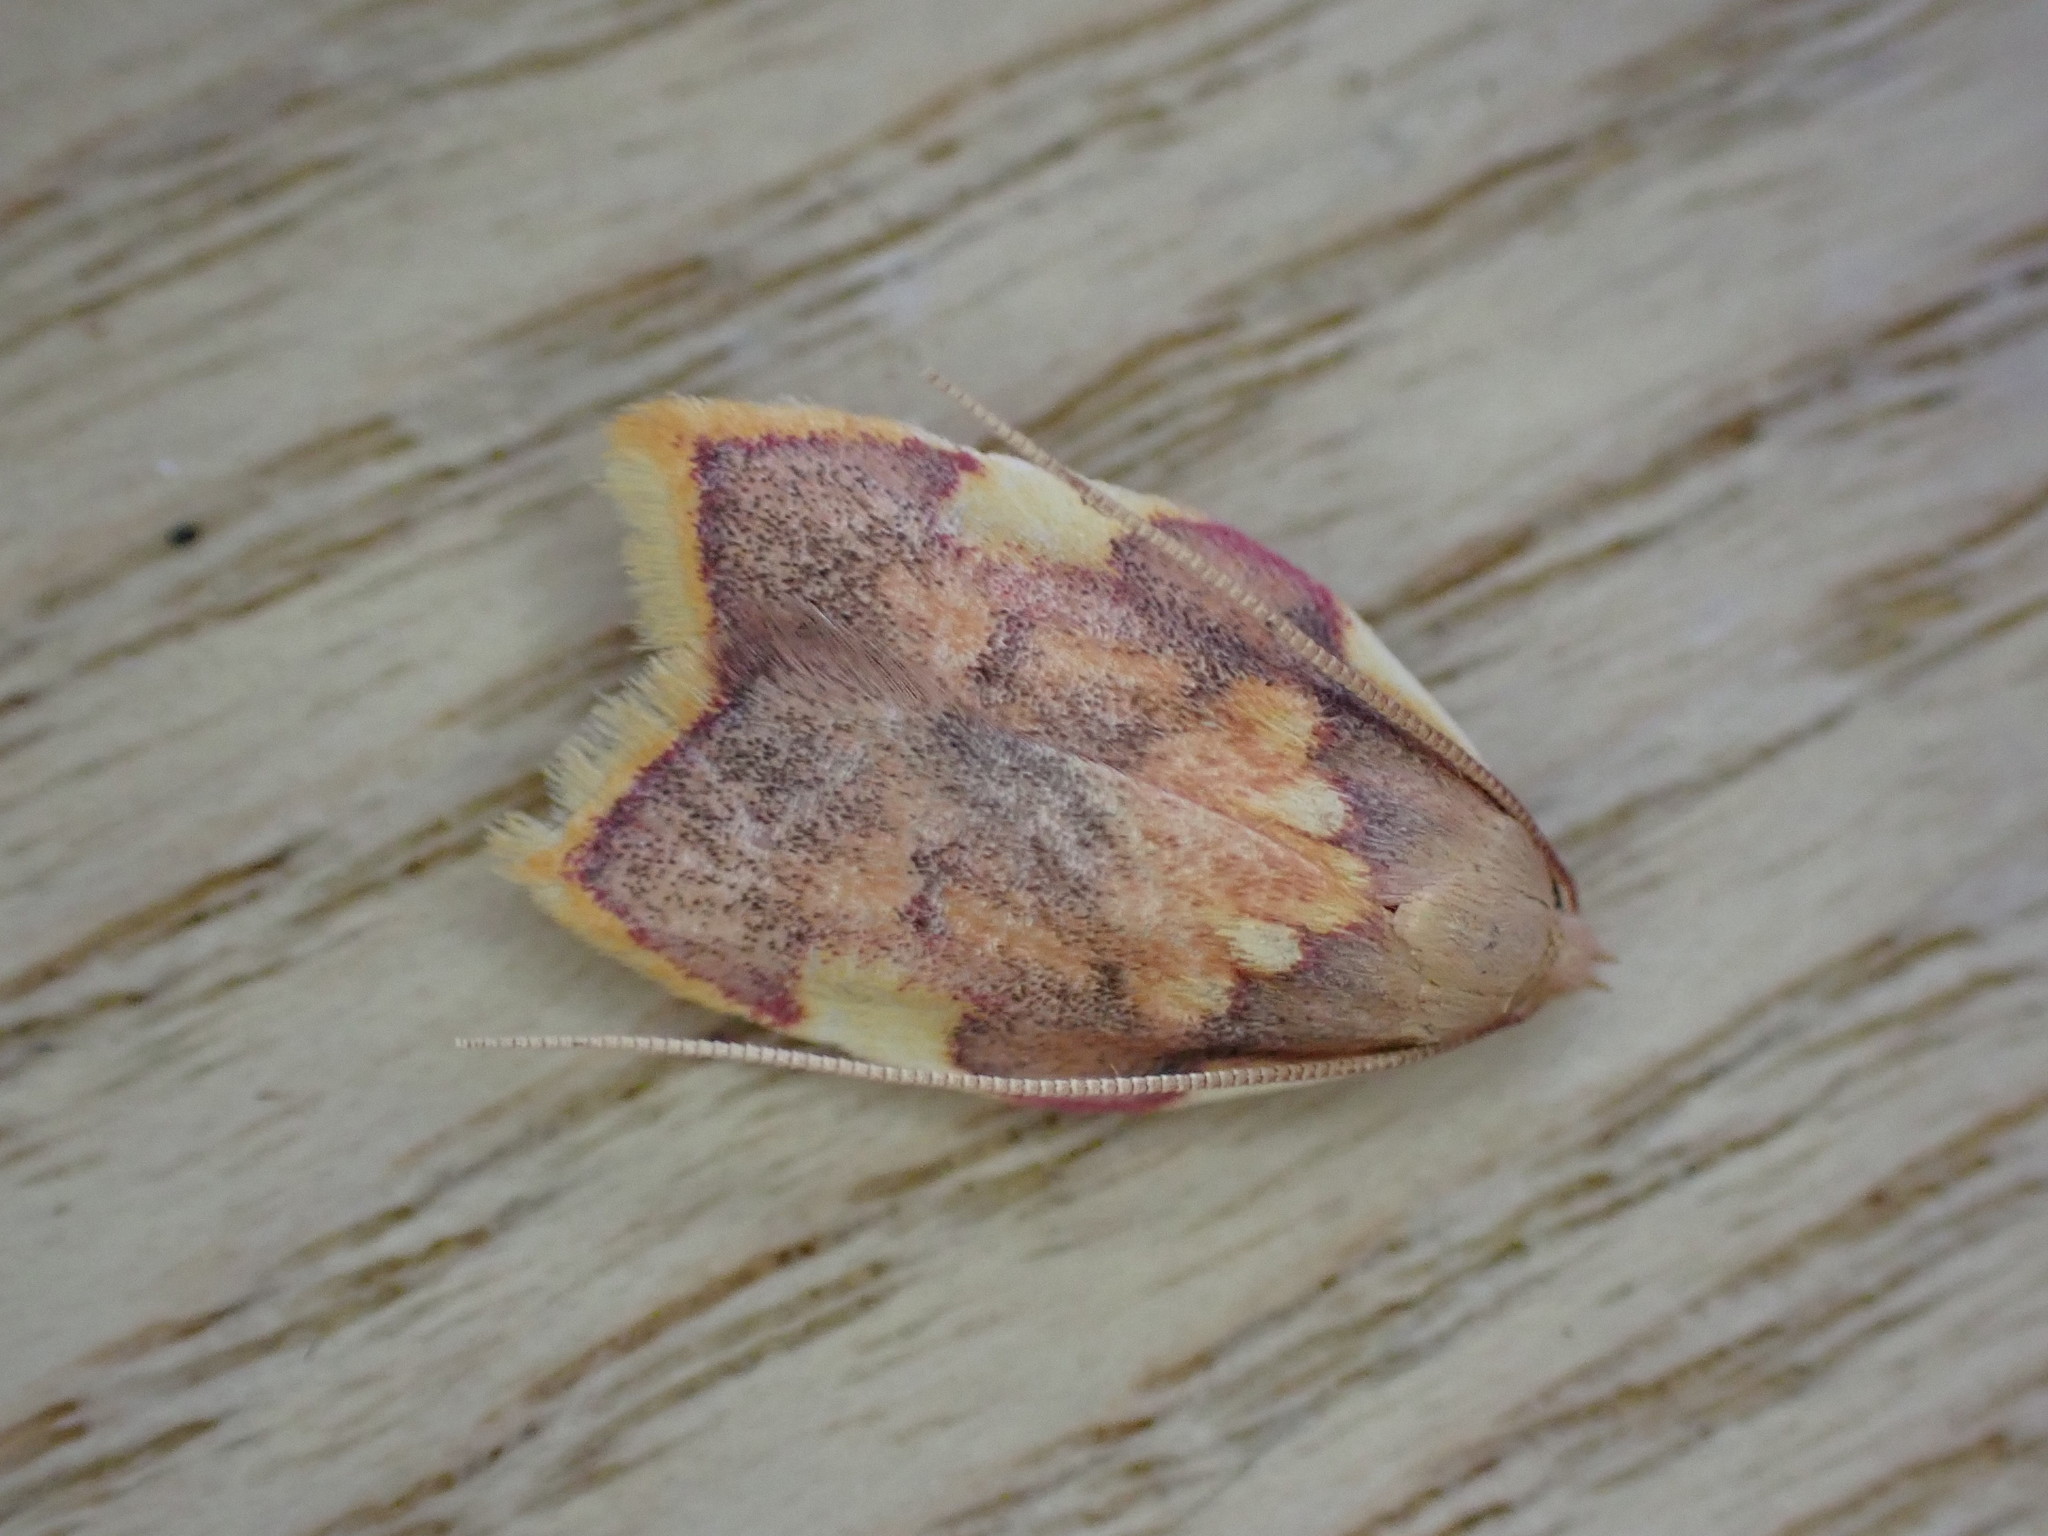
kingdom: Animalia
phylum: Arthropoda
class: Insecta
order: Lepidoptera
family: Peleopodidae
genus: Carcina
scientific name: Carcina quercana
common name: Moth
